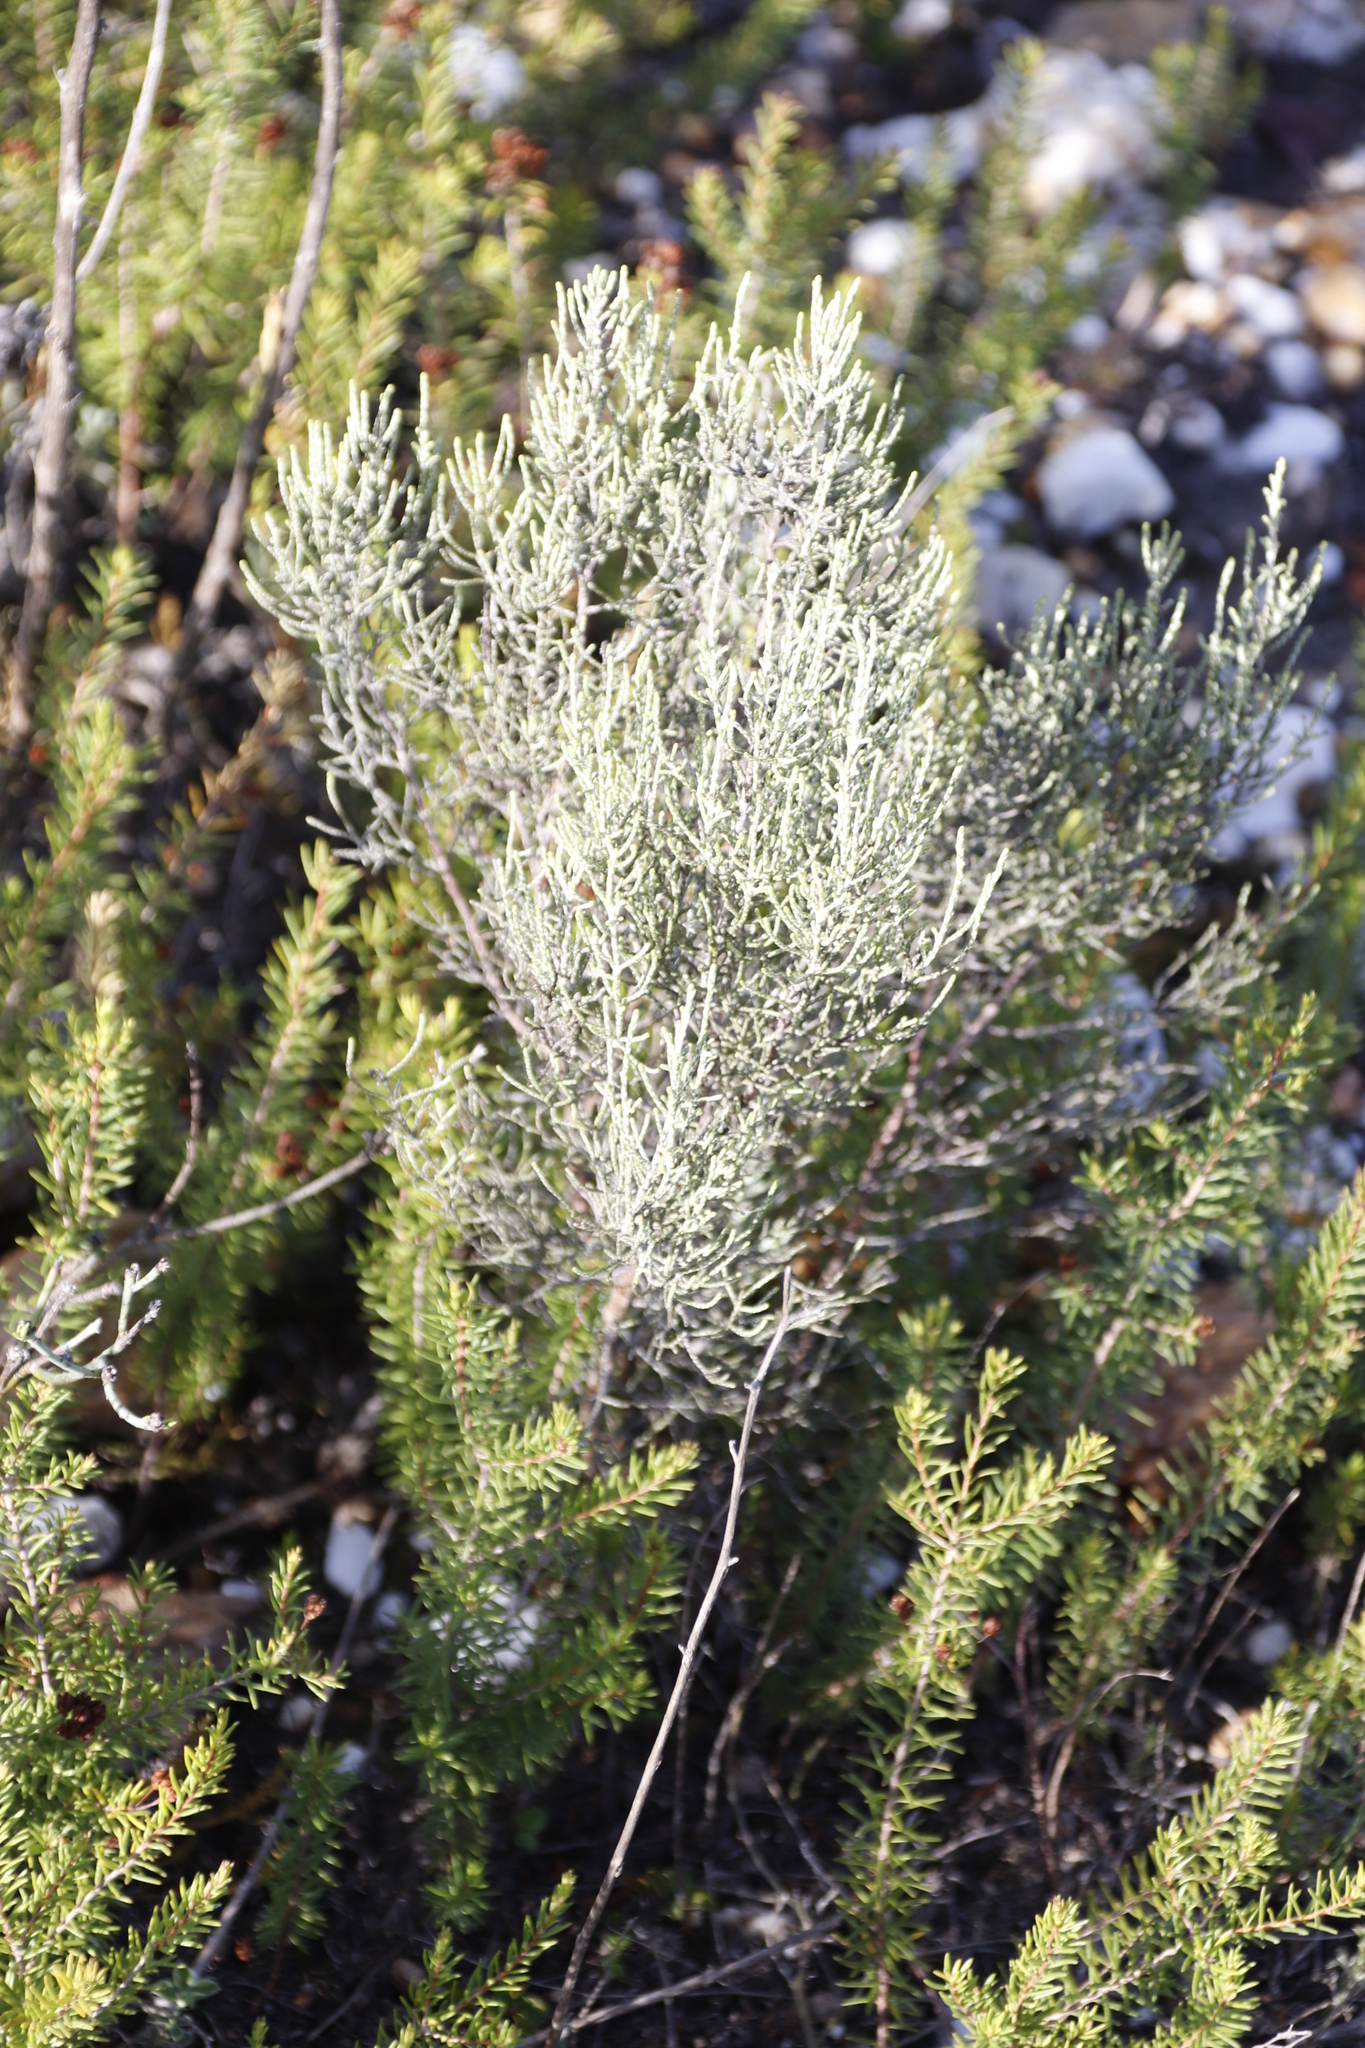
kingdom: Plantae
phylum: Tracheophyta
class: Magnoliopsida
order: Asterales
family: Asteraceae
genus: Dicerothamnus
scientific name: Dicerothamnus rhinocerotis
